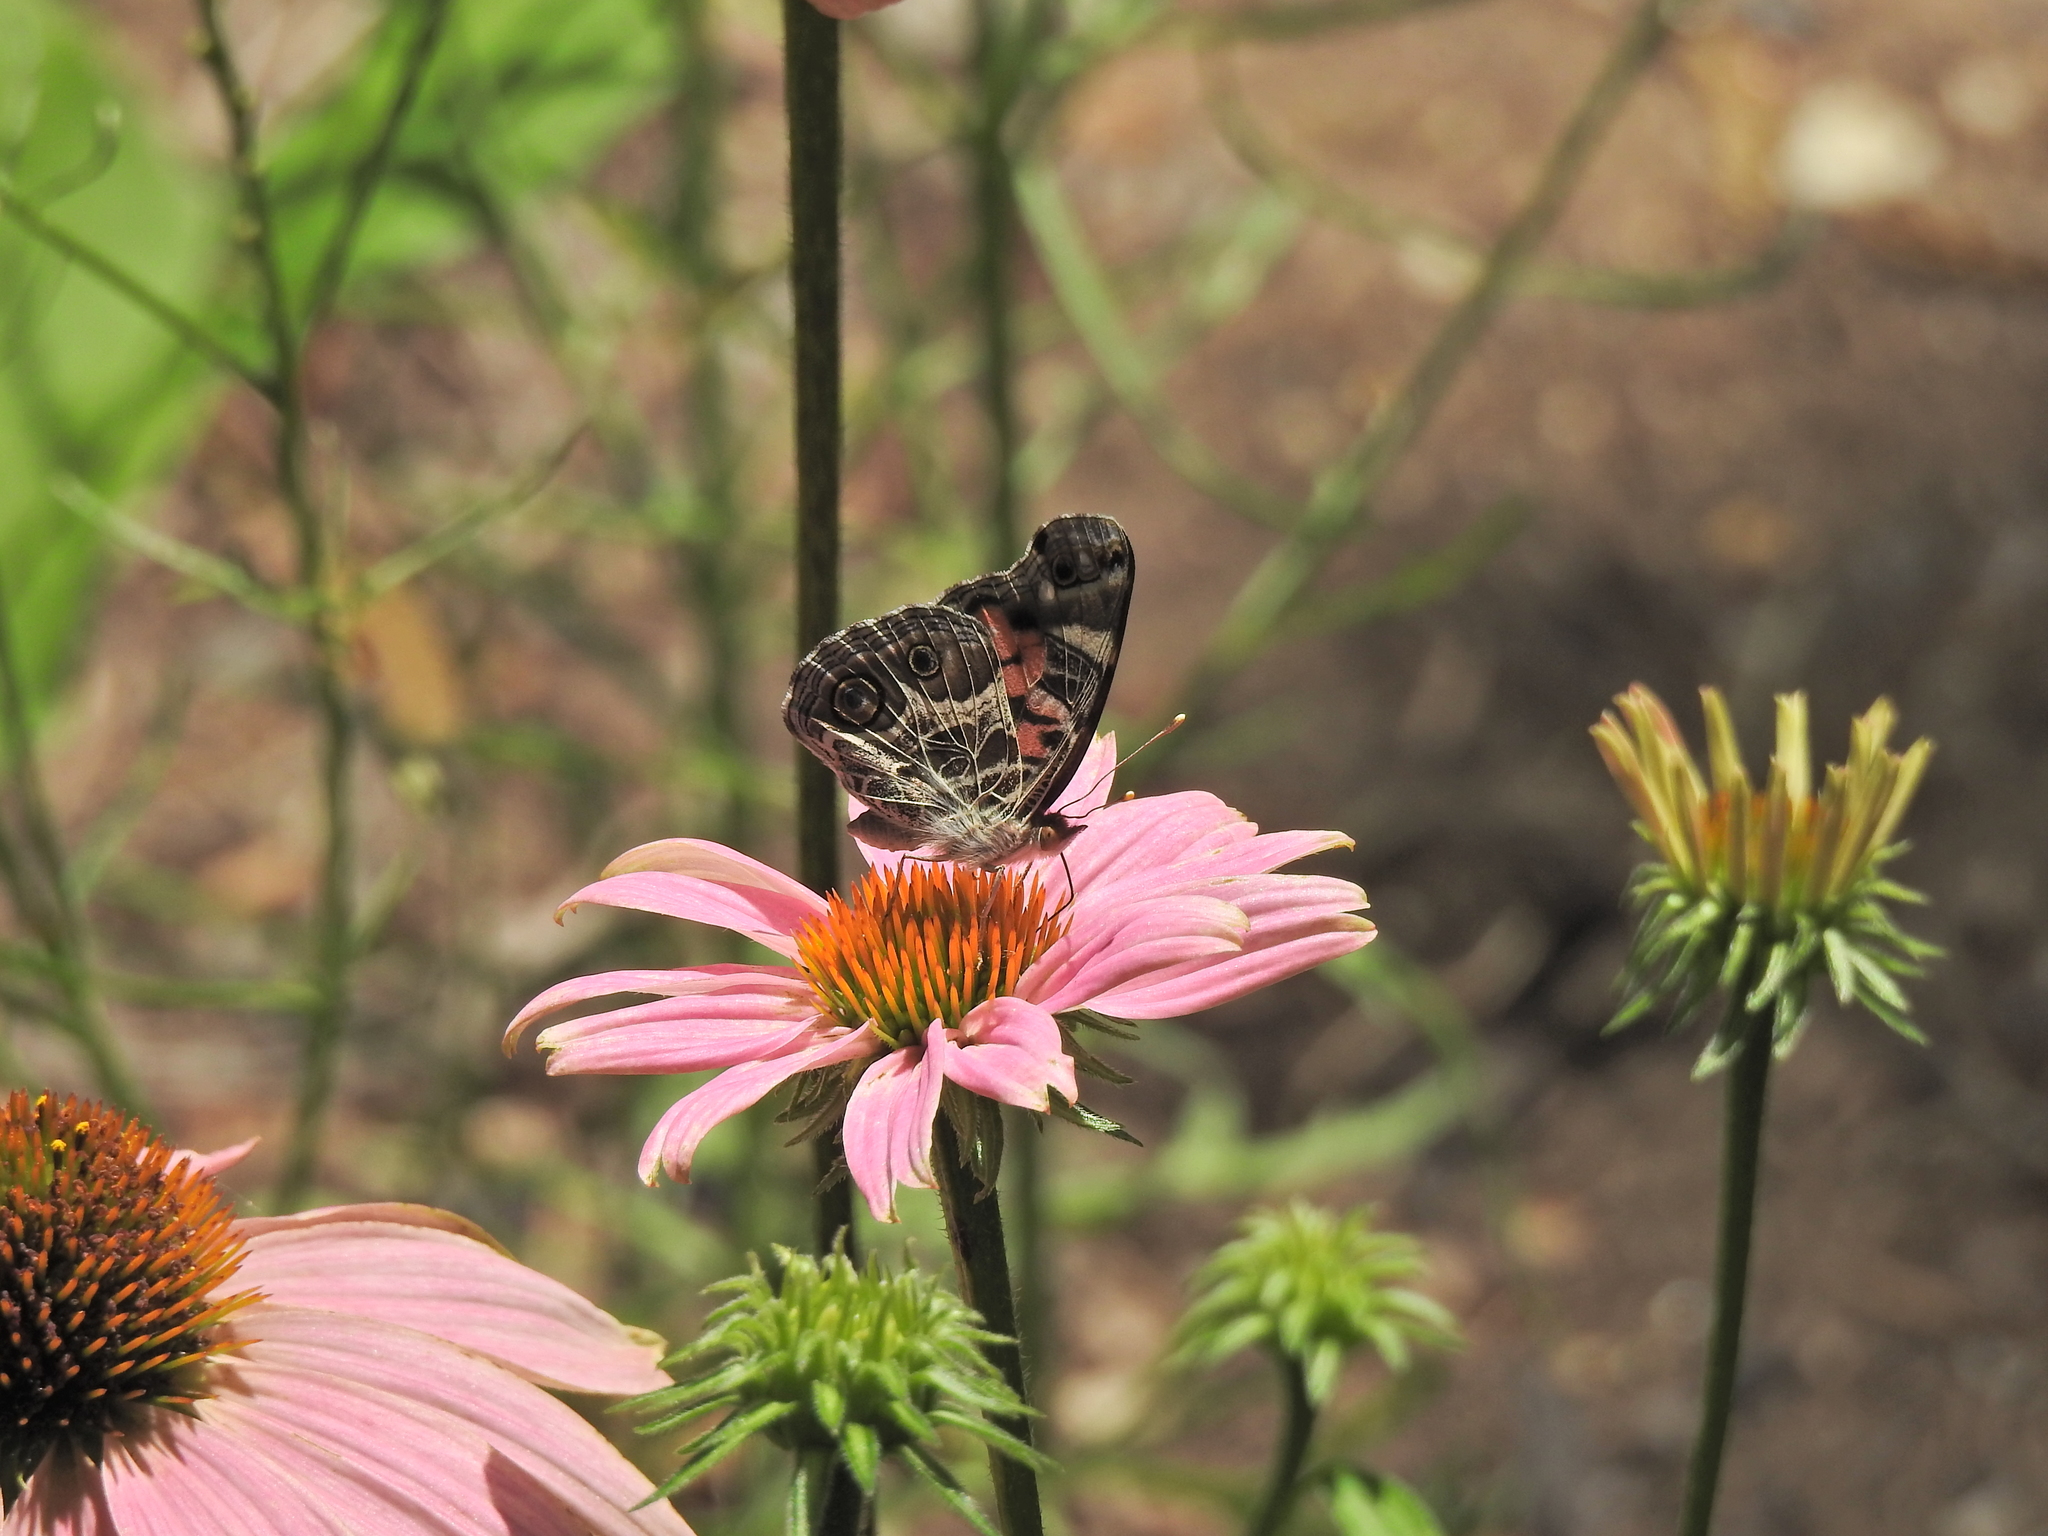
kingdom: Animalia
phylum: Arthropoda
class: Insecta
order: Lepidoptera
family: Nymphalidae
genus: Vanessa
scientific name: Vanessa virginiensis
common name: American lady
